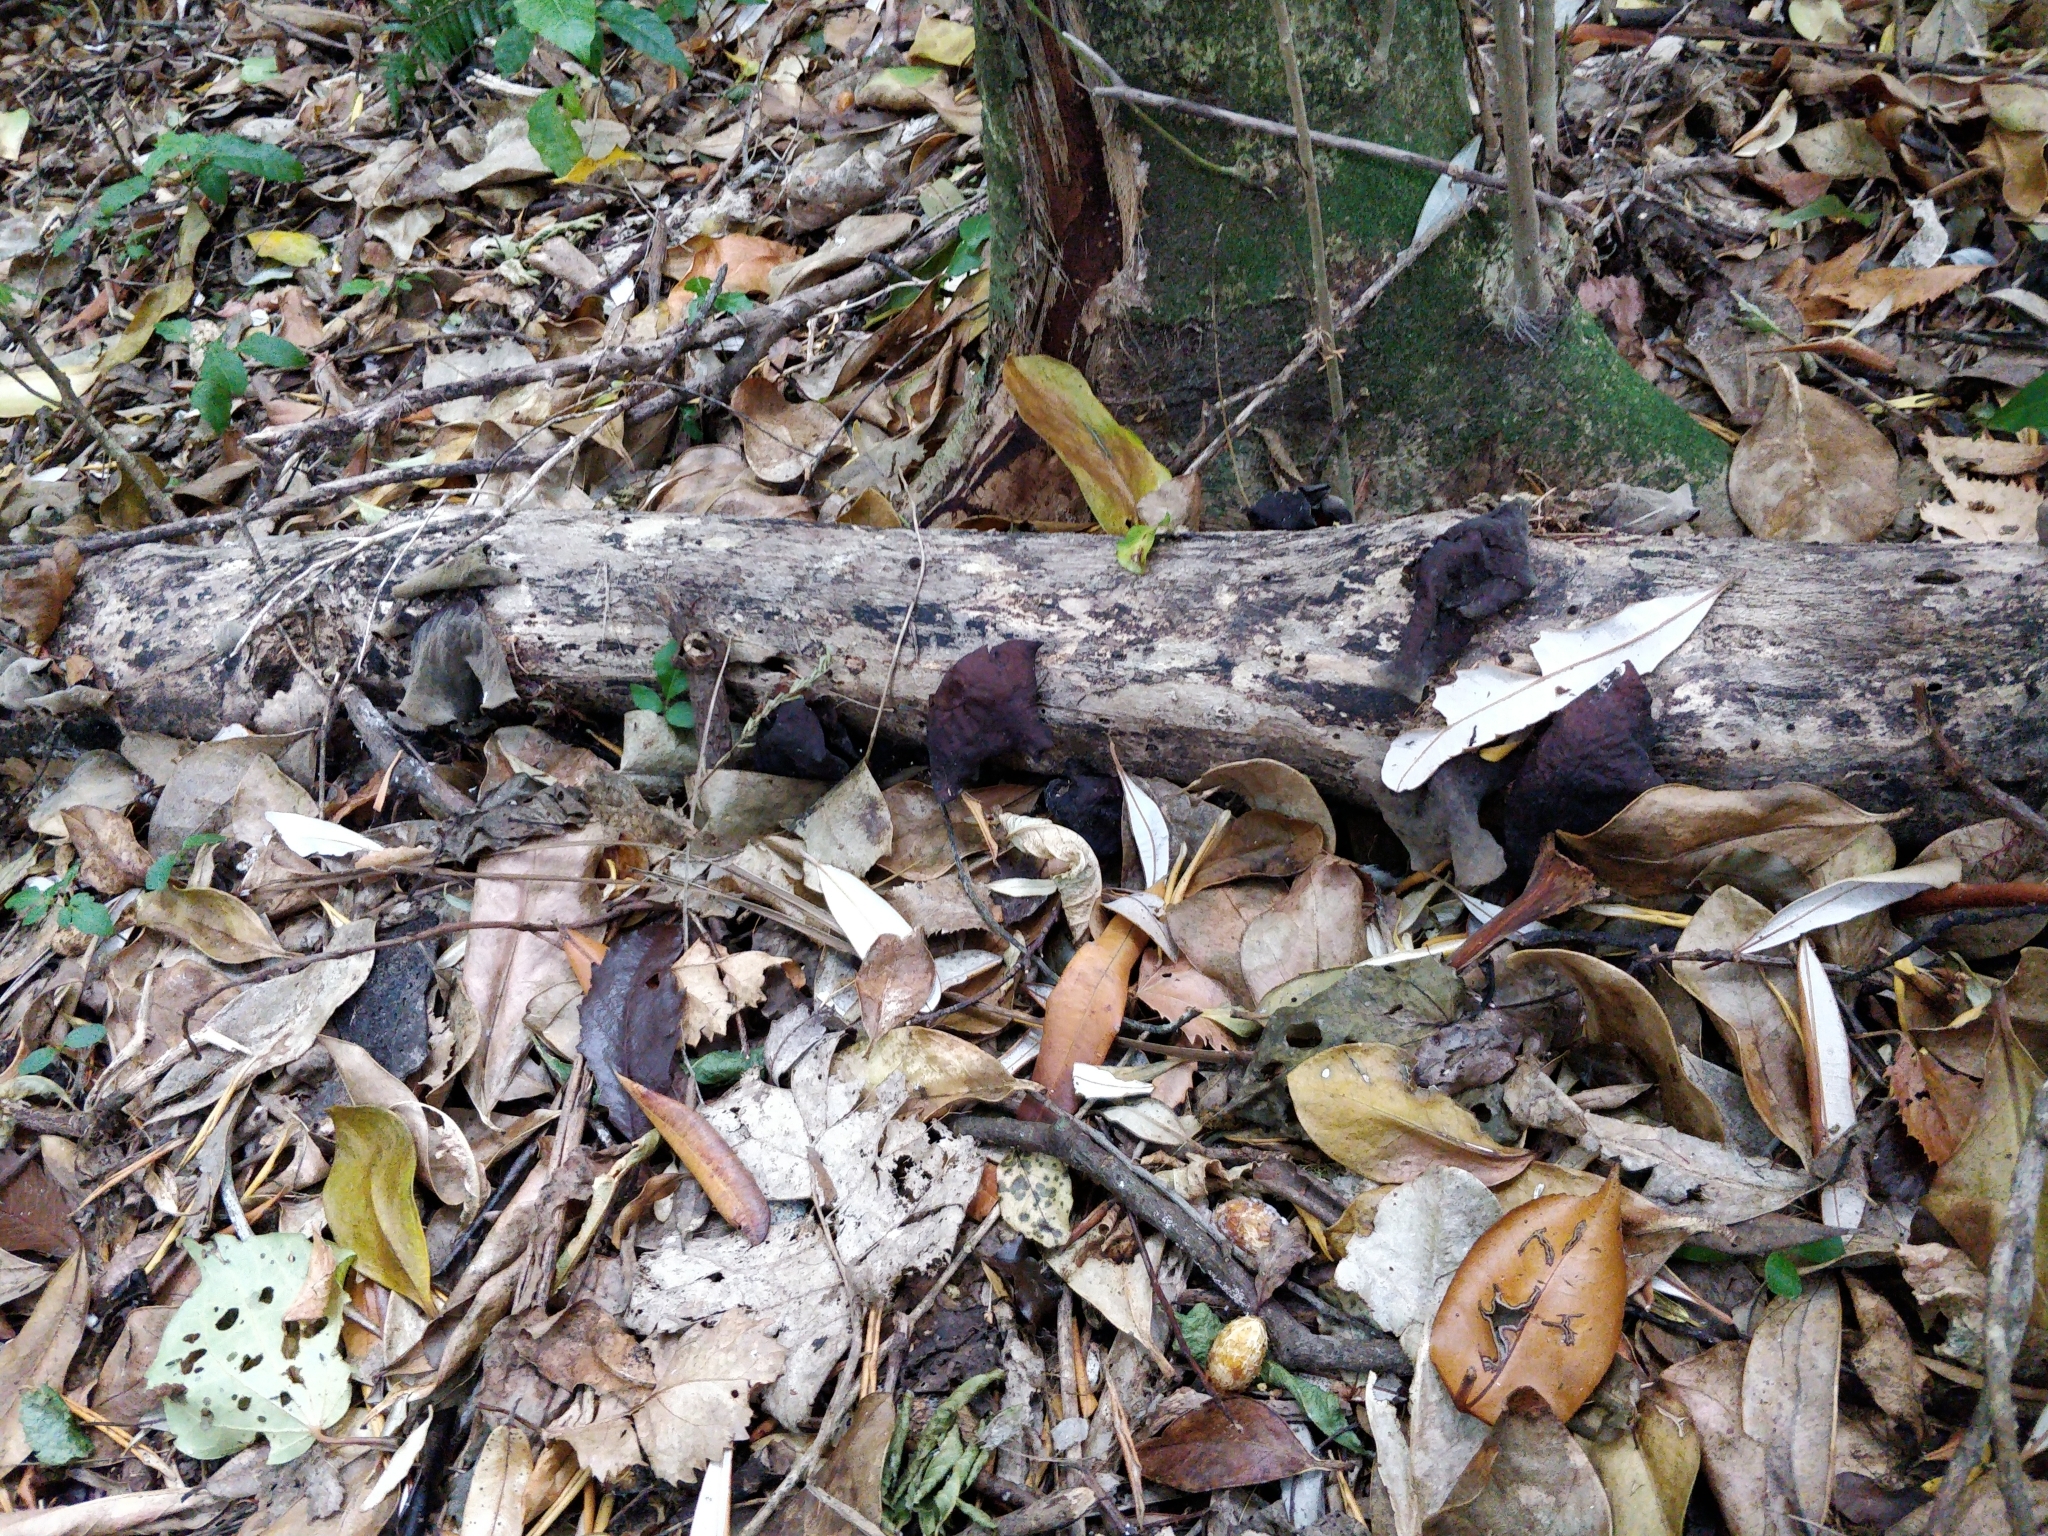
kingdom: Fungi
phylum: Basidiomycota
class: Agaricomycetes
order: Auriculariales
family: Auriculariaceae
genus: Auricularia
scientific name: Auricularia cornea
